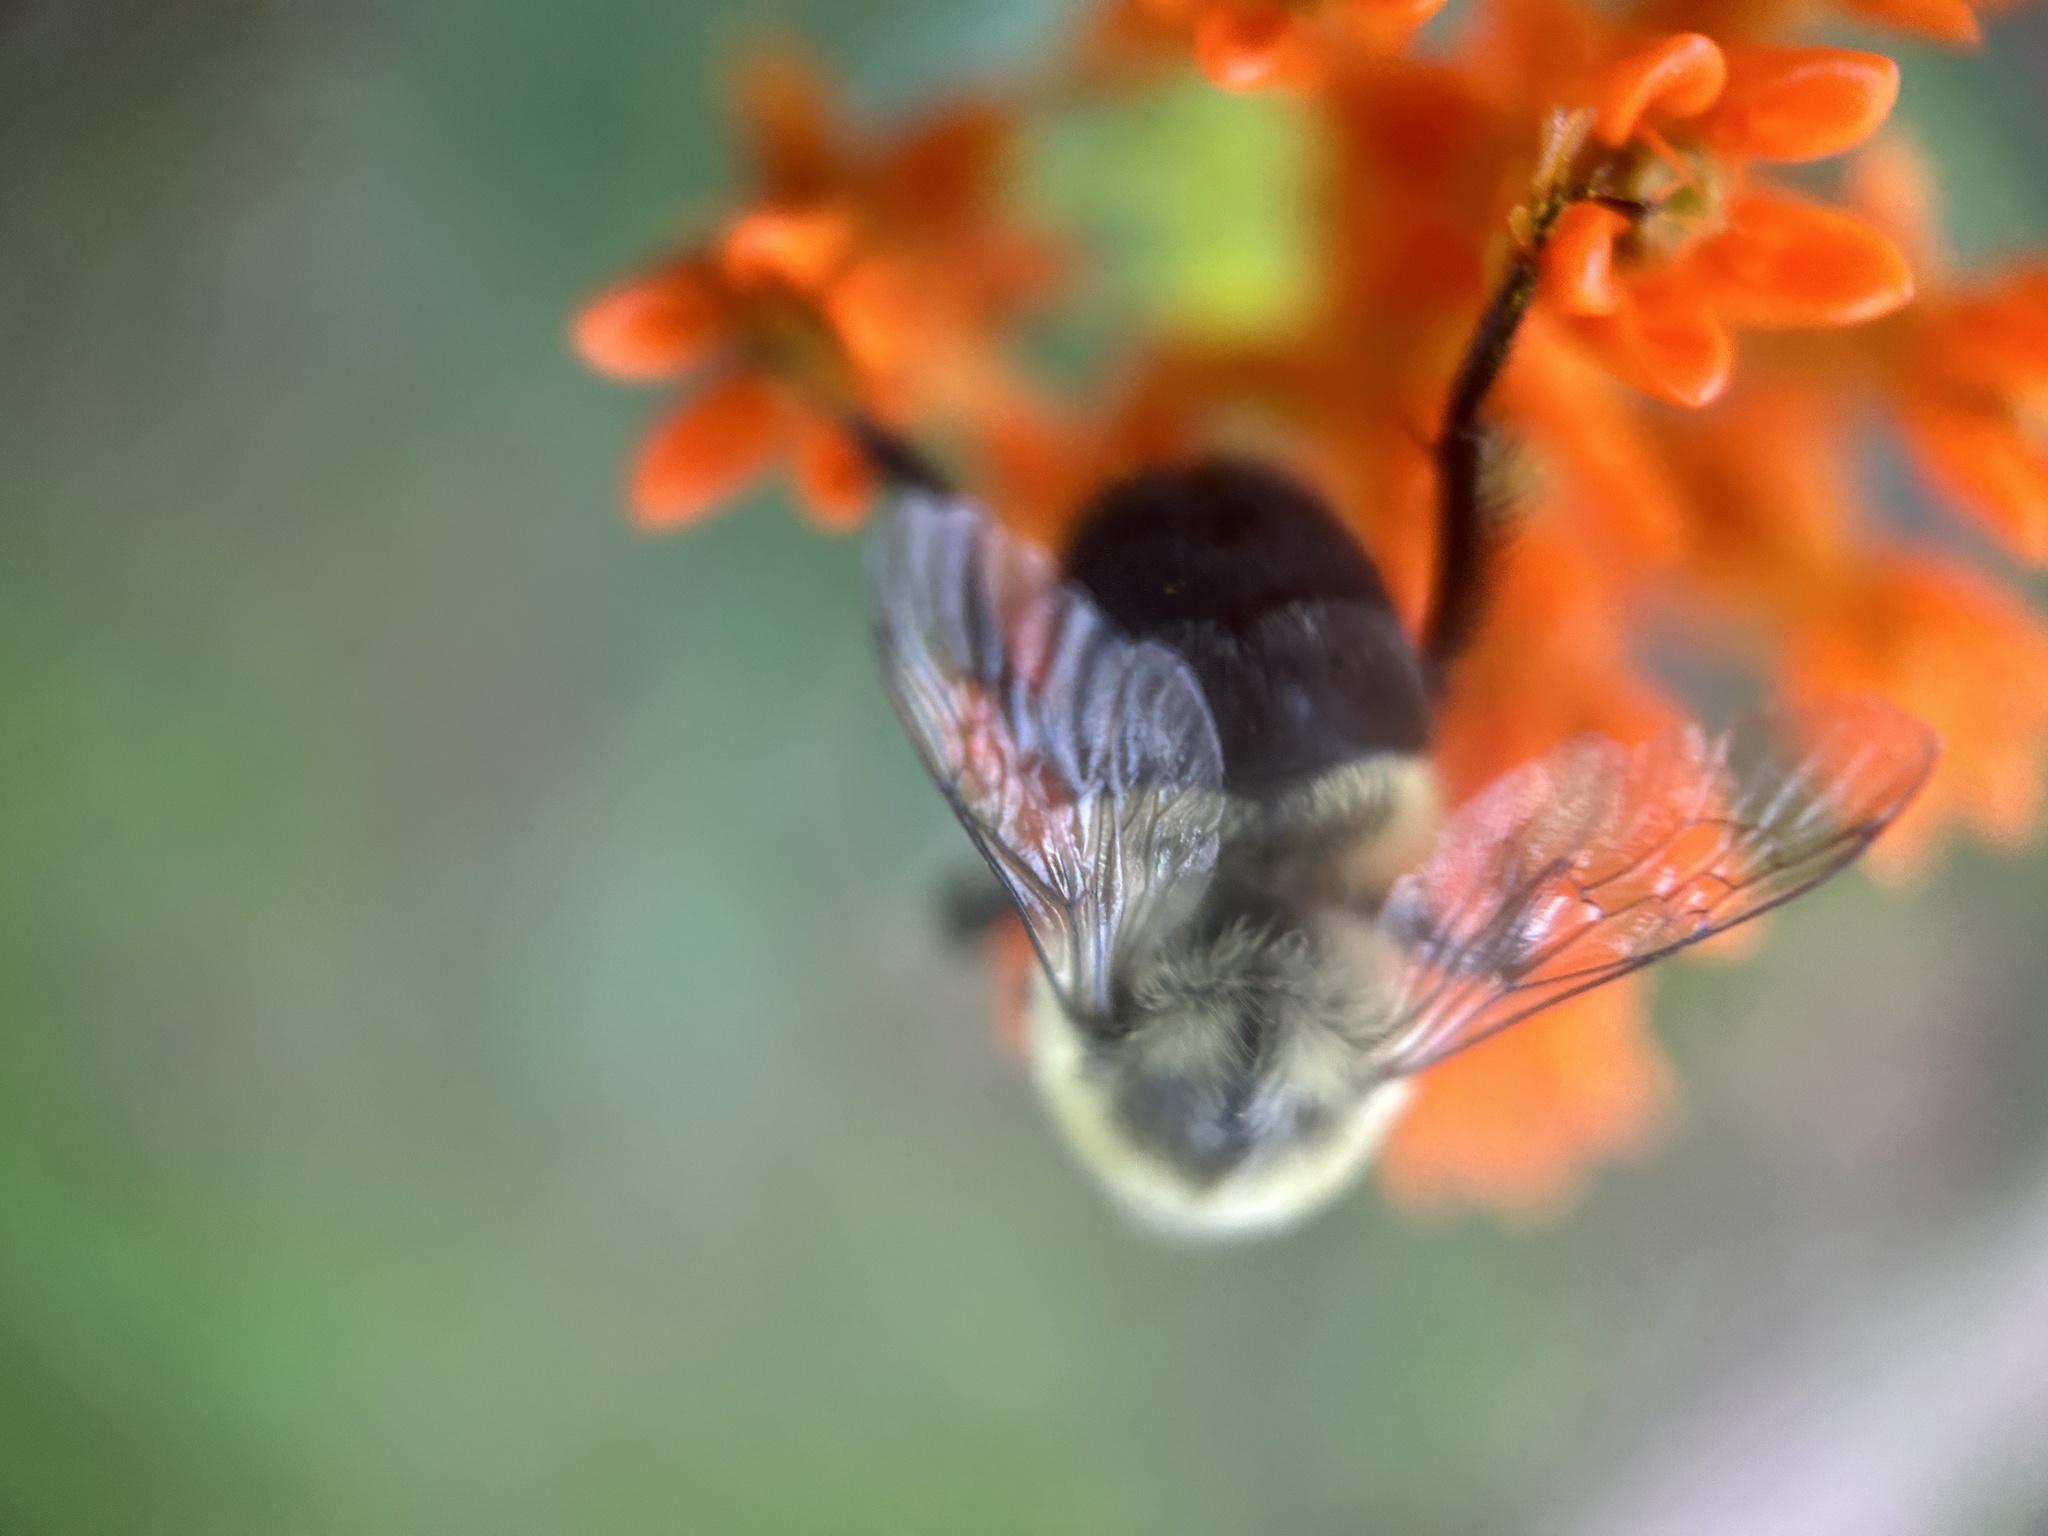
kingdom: Animalia
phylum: Arthropoda
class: Insecta
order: Hymenoptera
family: Apidae
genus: Bombus
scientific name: Bombus impatiens
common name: Common eastern bumble bee
